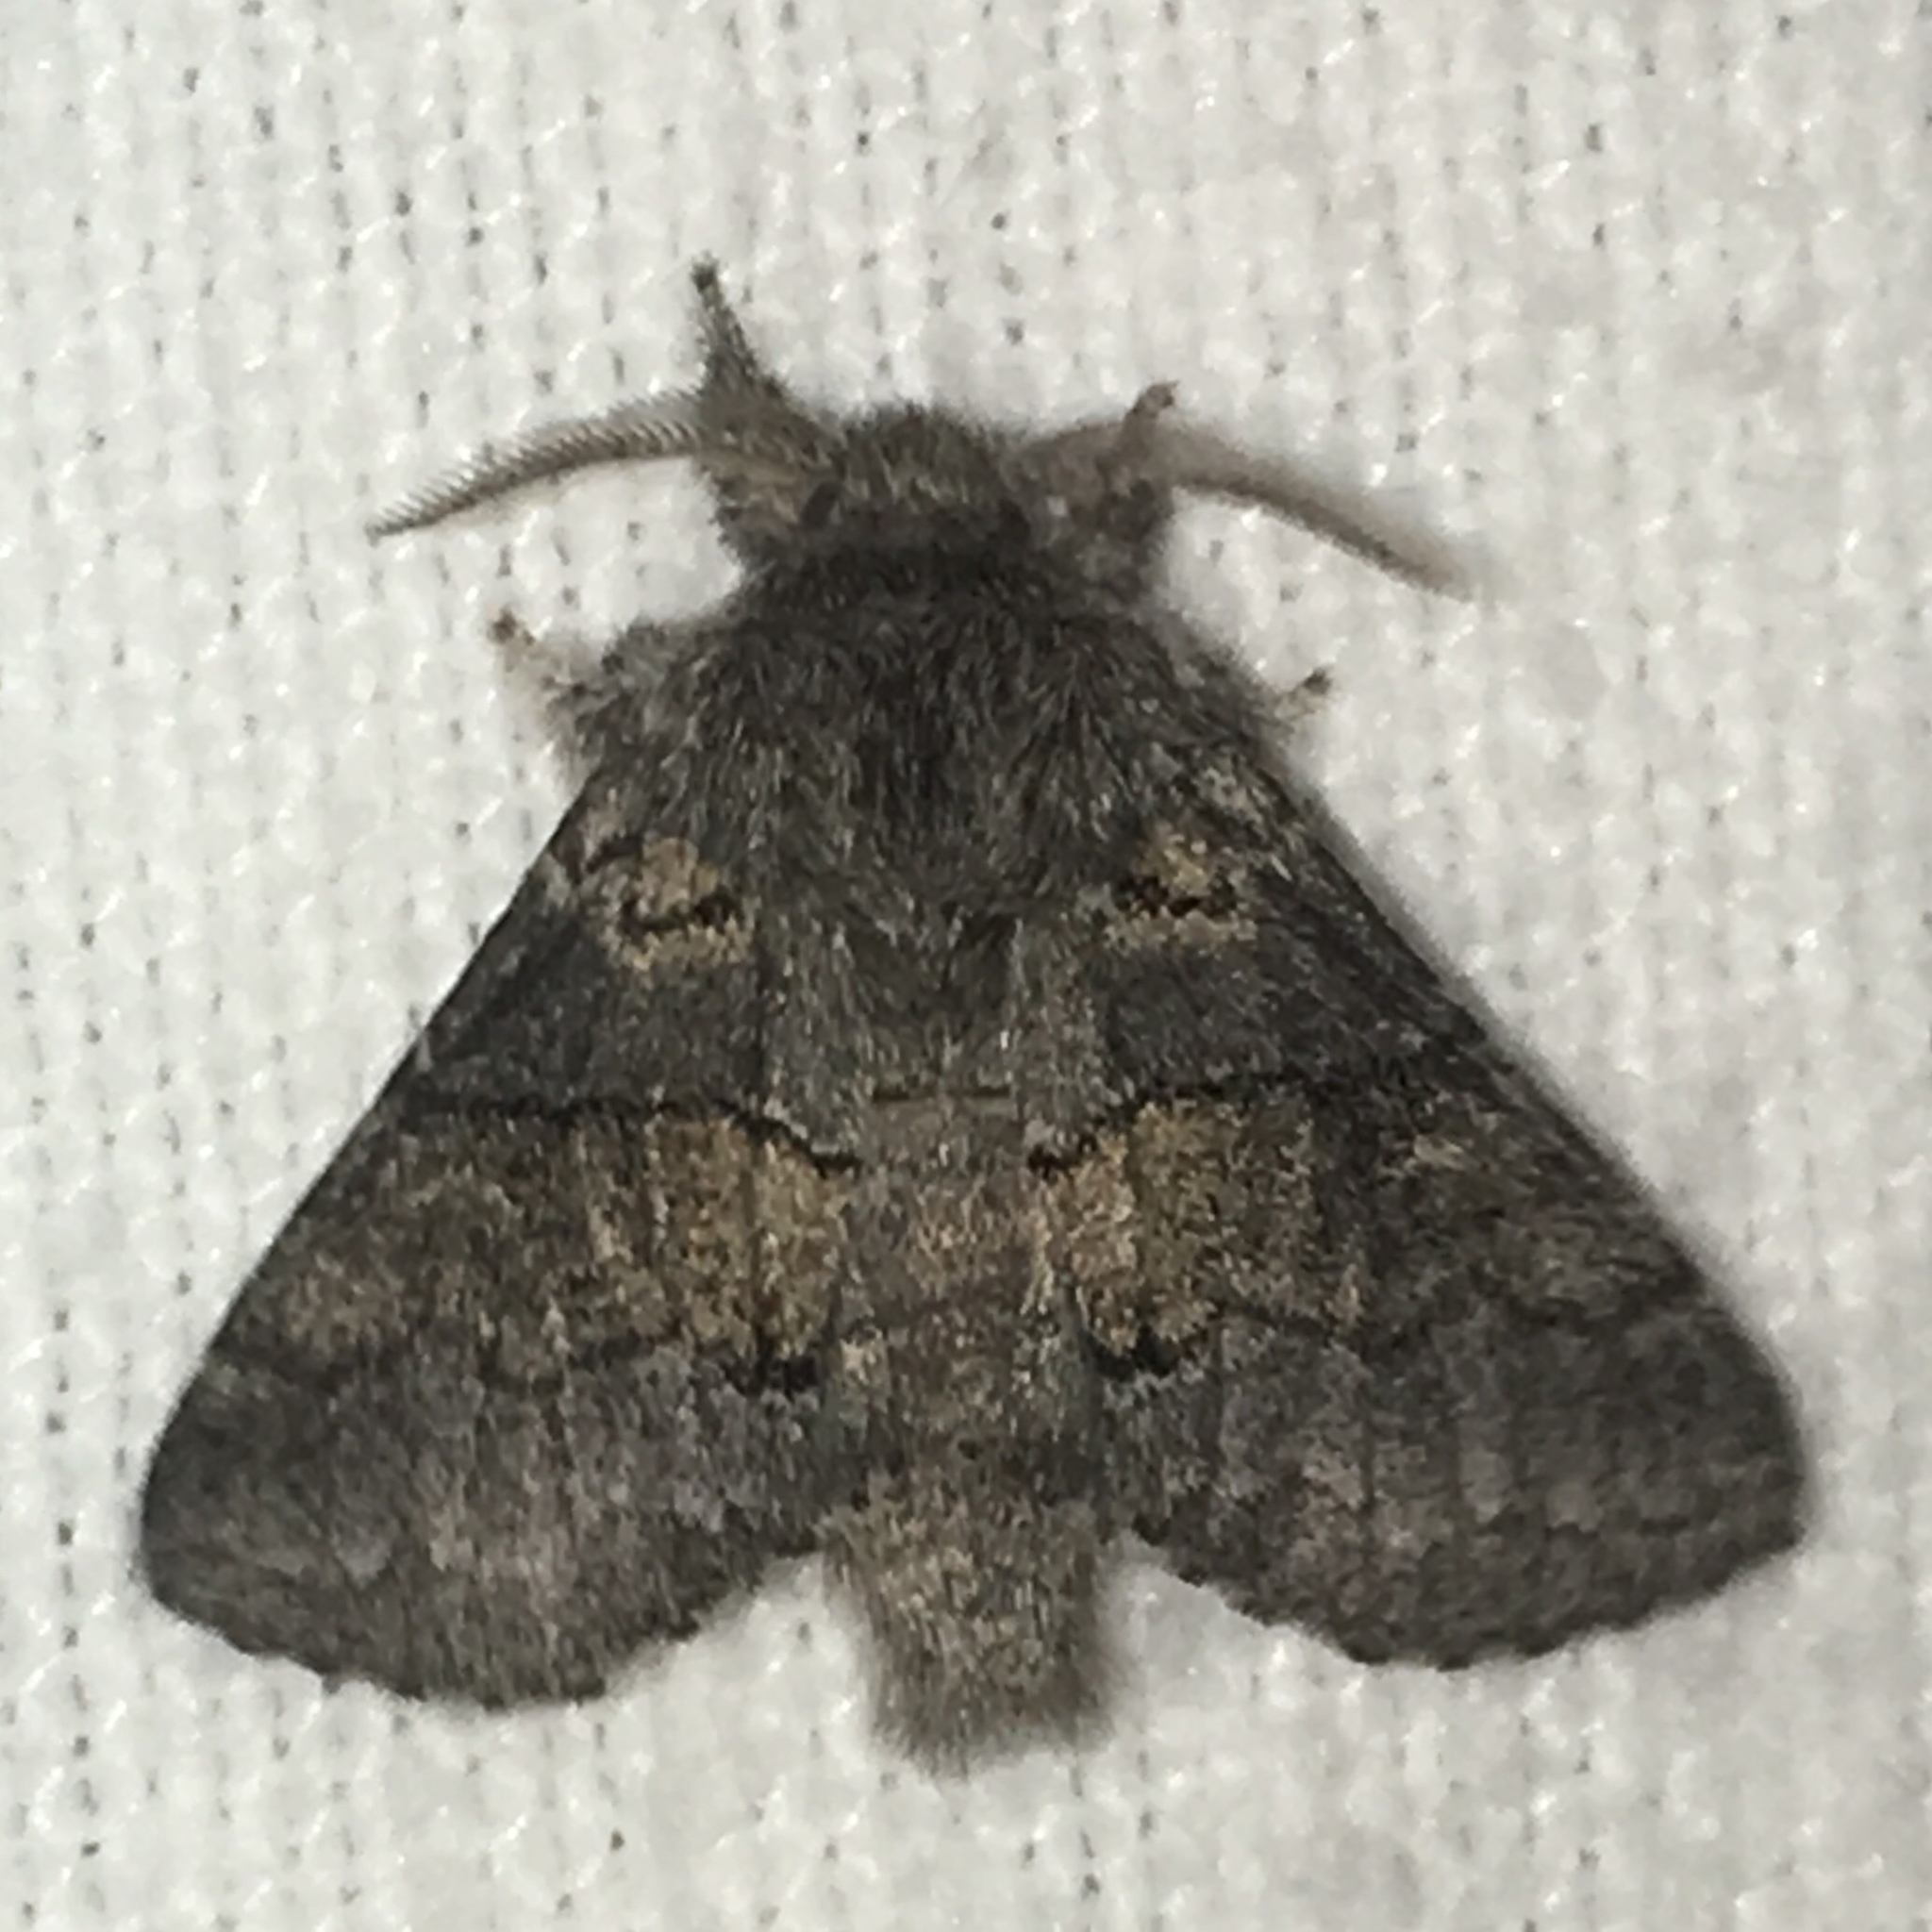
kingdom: Animalia
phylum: Arthropoda
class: Insecta
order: Lepidoptera
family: Notodontidae
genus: Gluphisia
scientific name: Gluphisia septentrionis
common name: Common gluphisia
